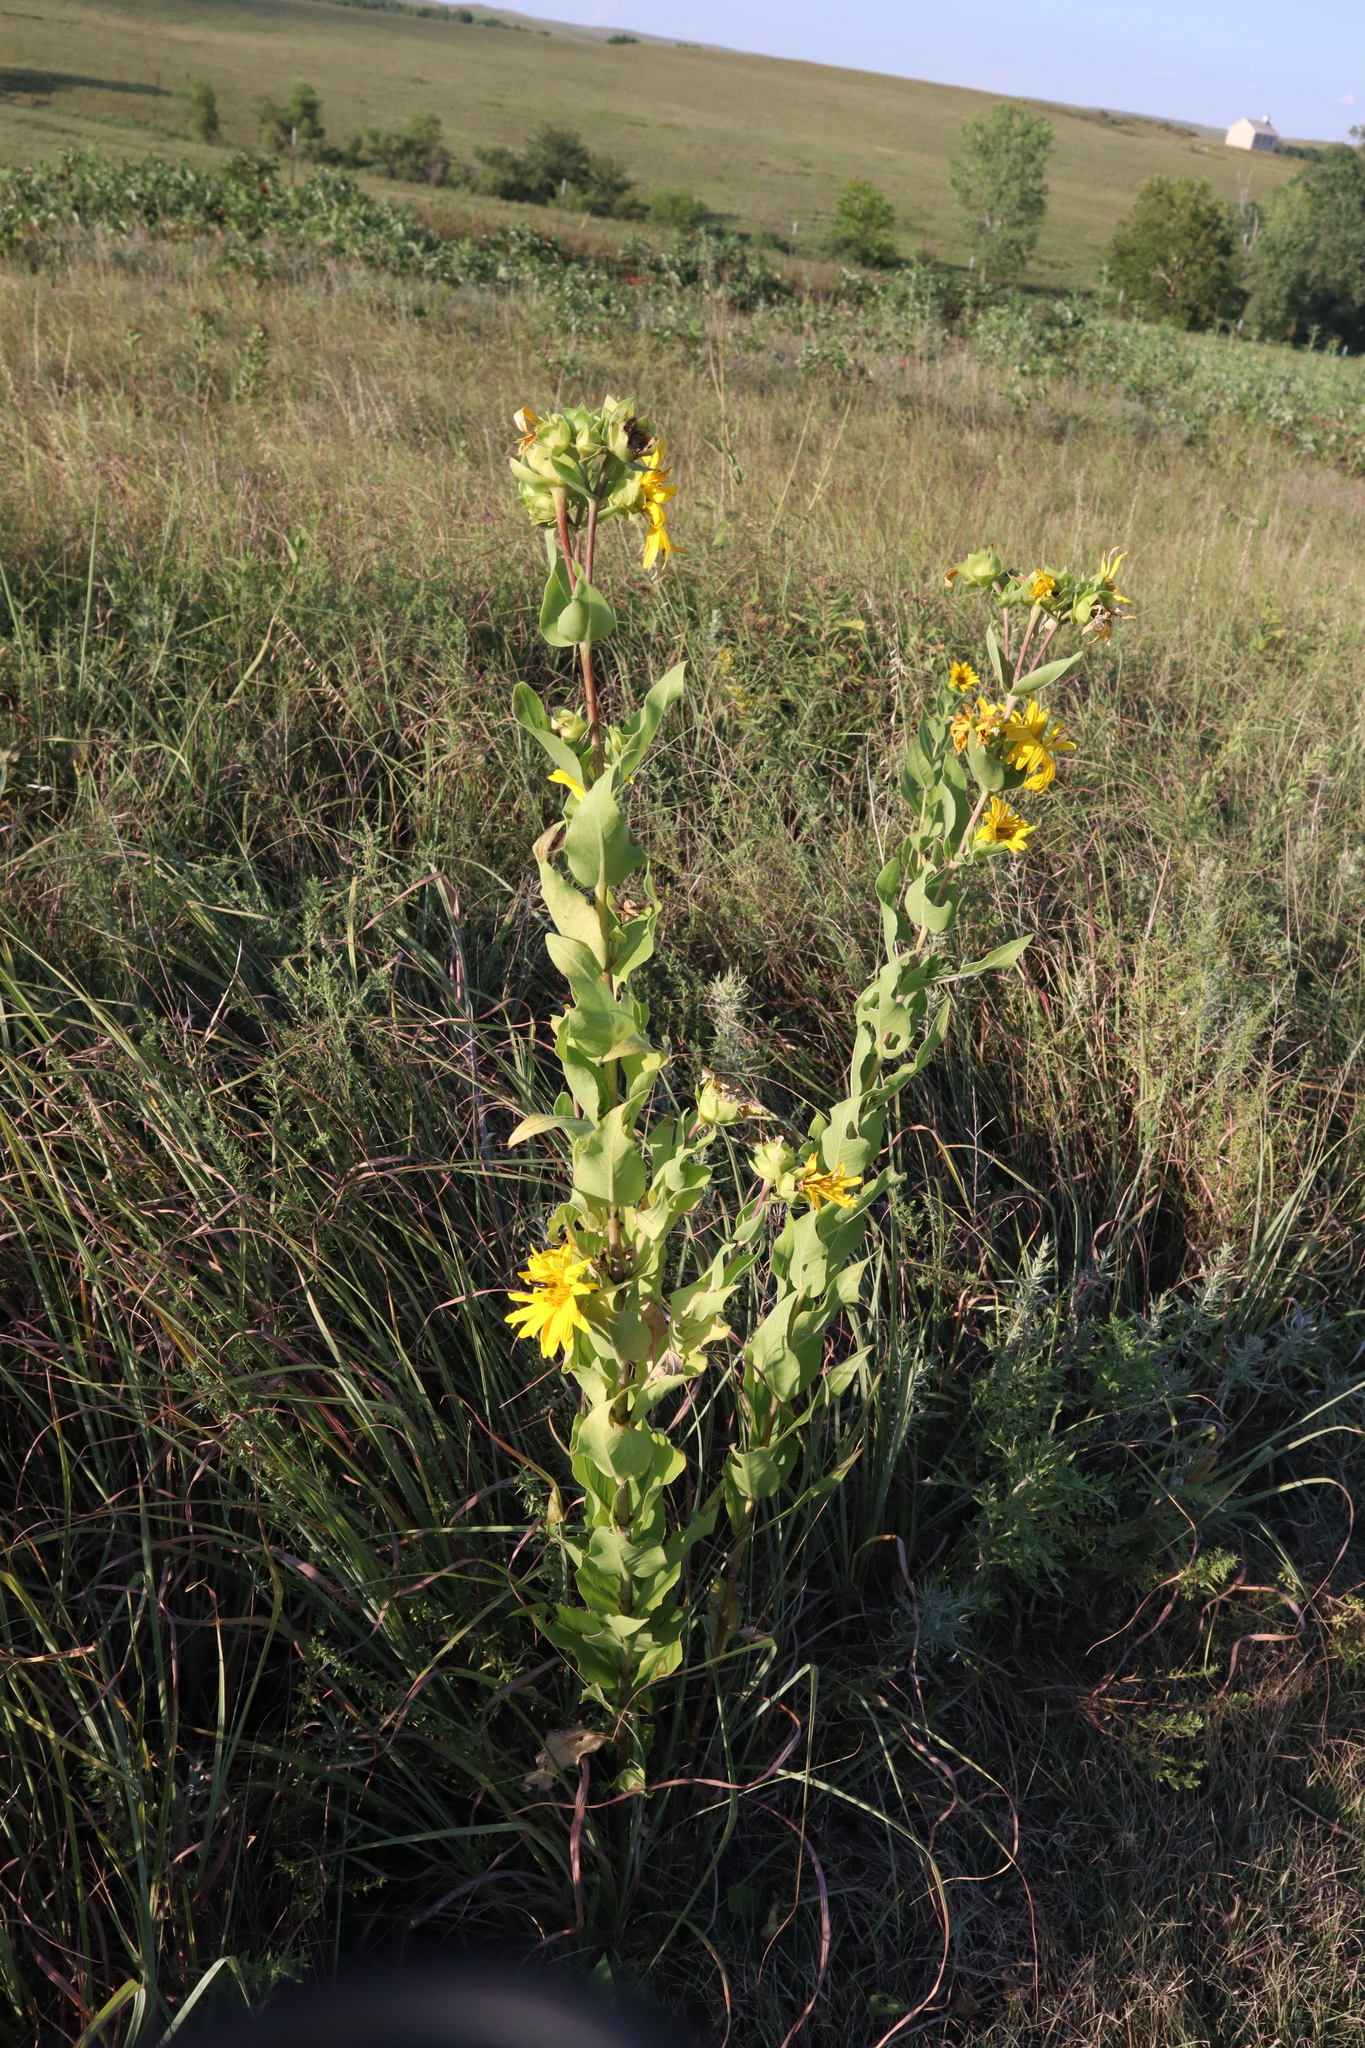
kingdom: Plantae
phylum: Tracheophyta
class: Magnoliopsida
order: Asterales
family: Asteraceae
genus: Silphium
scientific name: Silphium integrifolium
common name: Whole-leaf rosinweed
